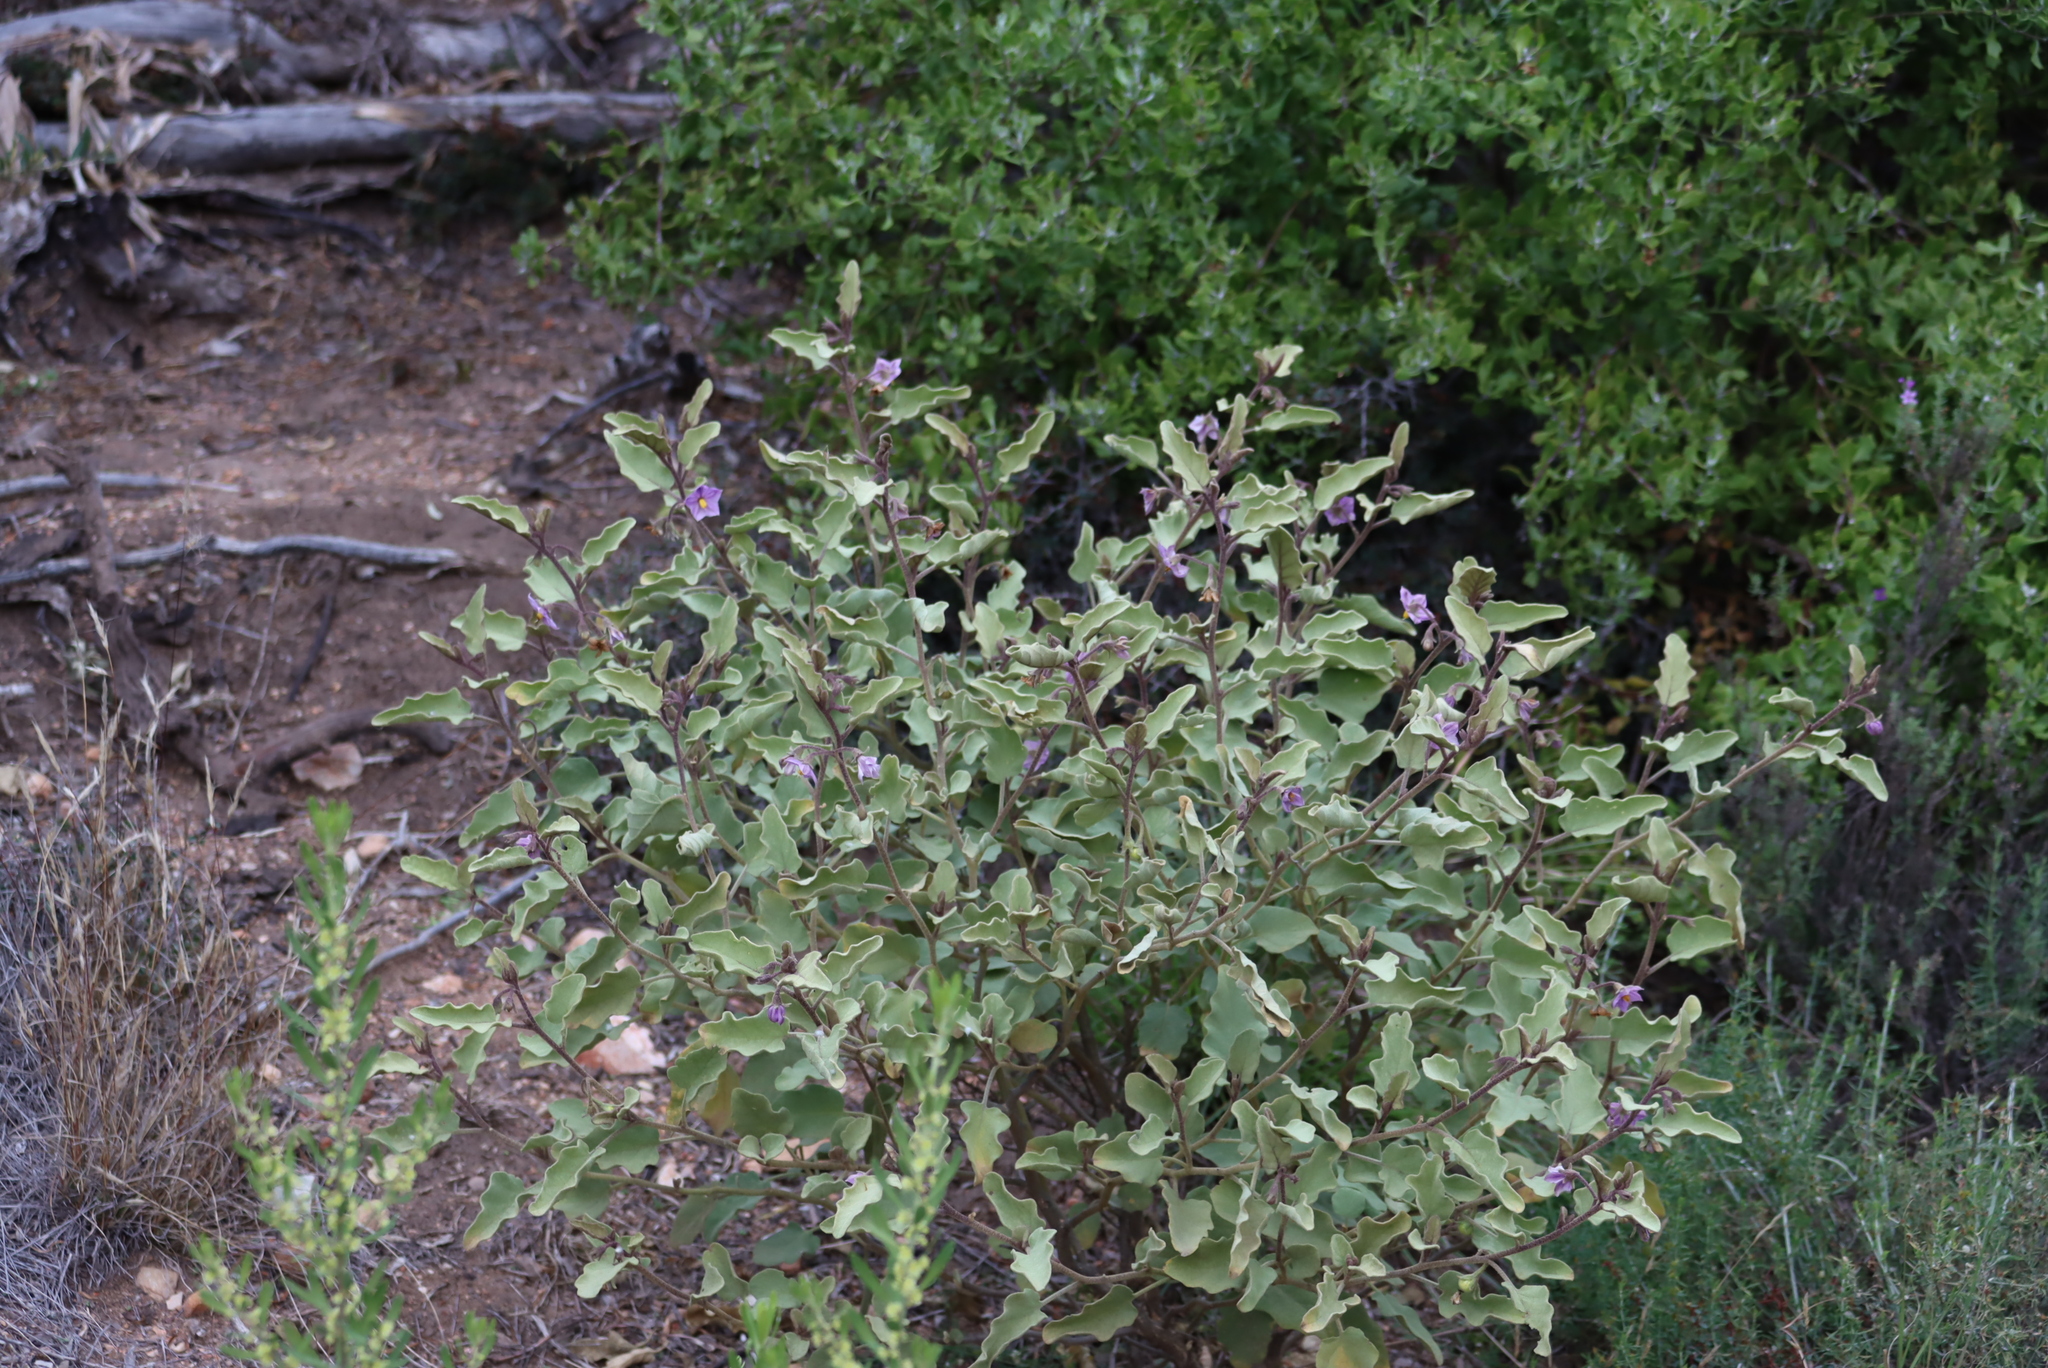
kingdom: Plantae
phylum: Tracheophyta
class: Magnoliopsida
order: Solanales
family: Solanaceae
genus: Solanum
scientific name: Solanum tomentosum
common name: Wild aubergine
